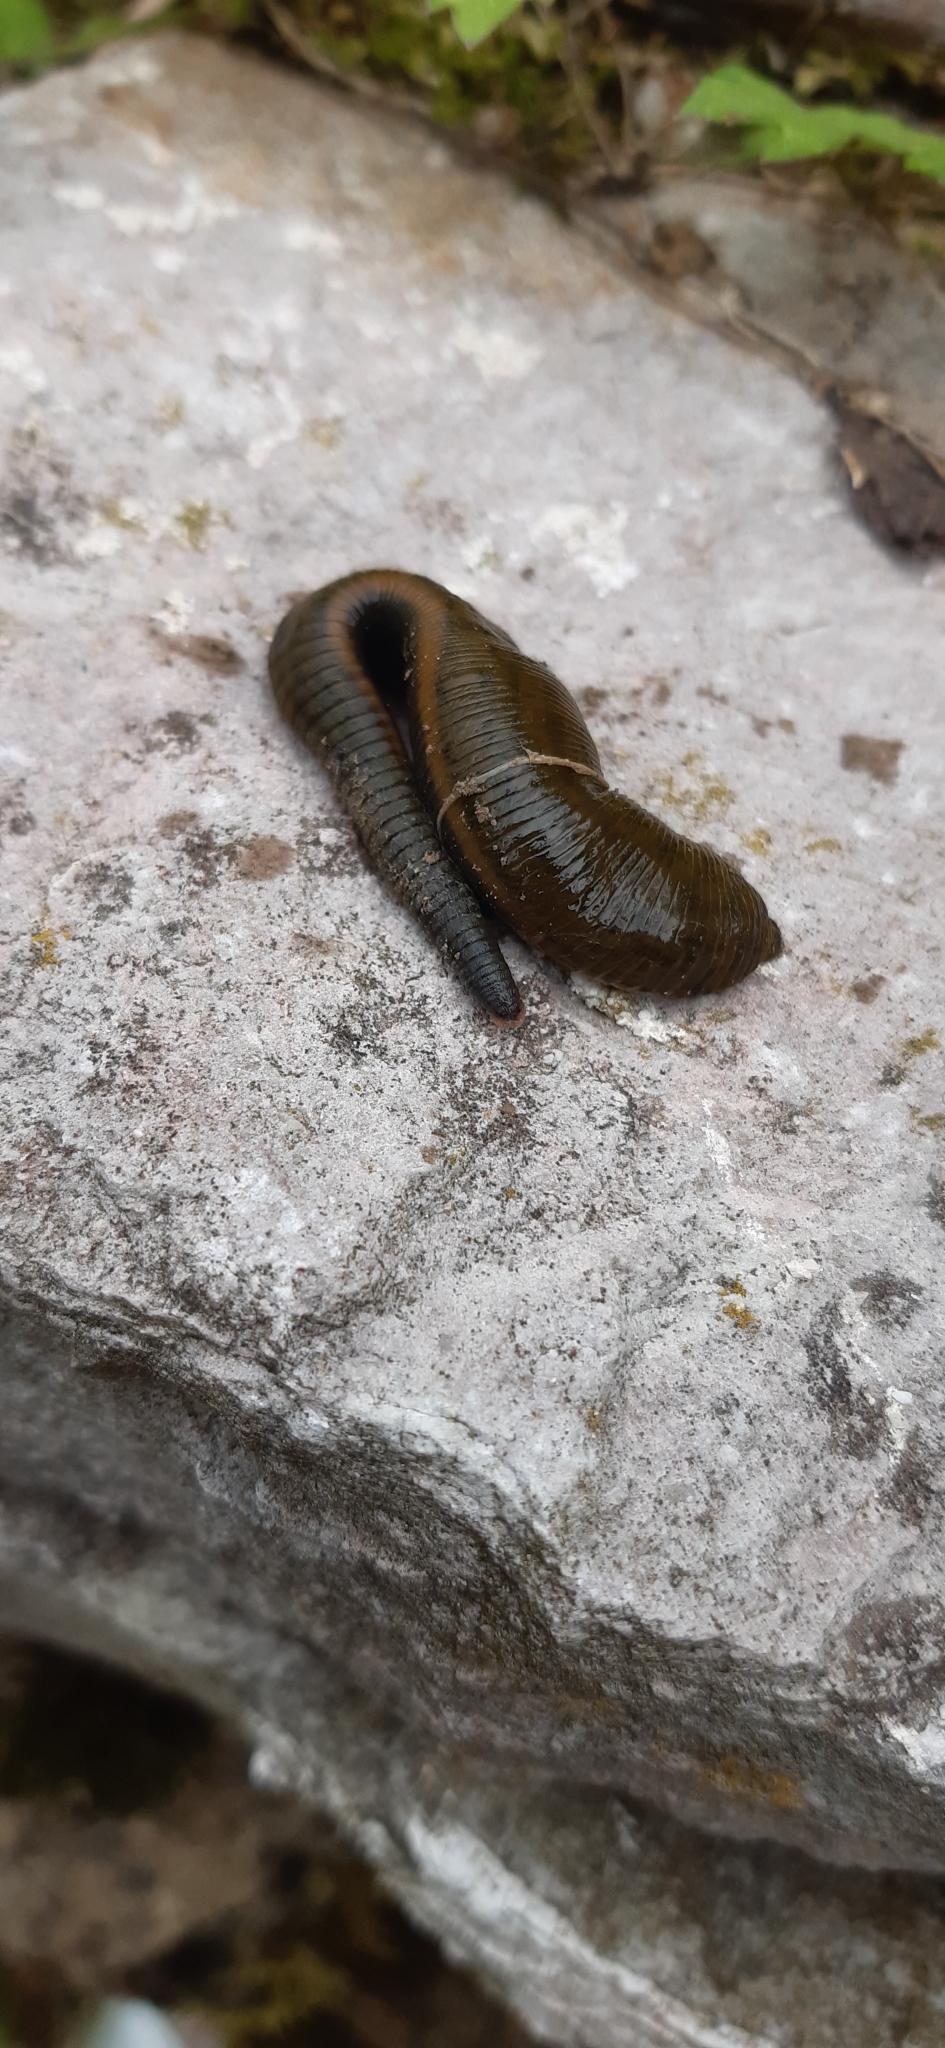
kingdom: Animalia
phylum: Annelida
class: Clitellata
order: Arhynchobdellida
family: Haemopidae
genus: Haemopis
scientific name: Haemopis elegans
